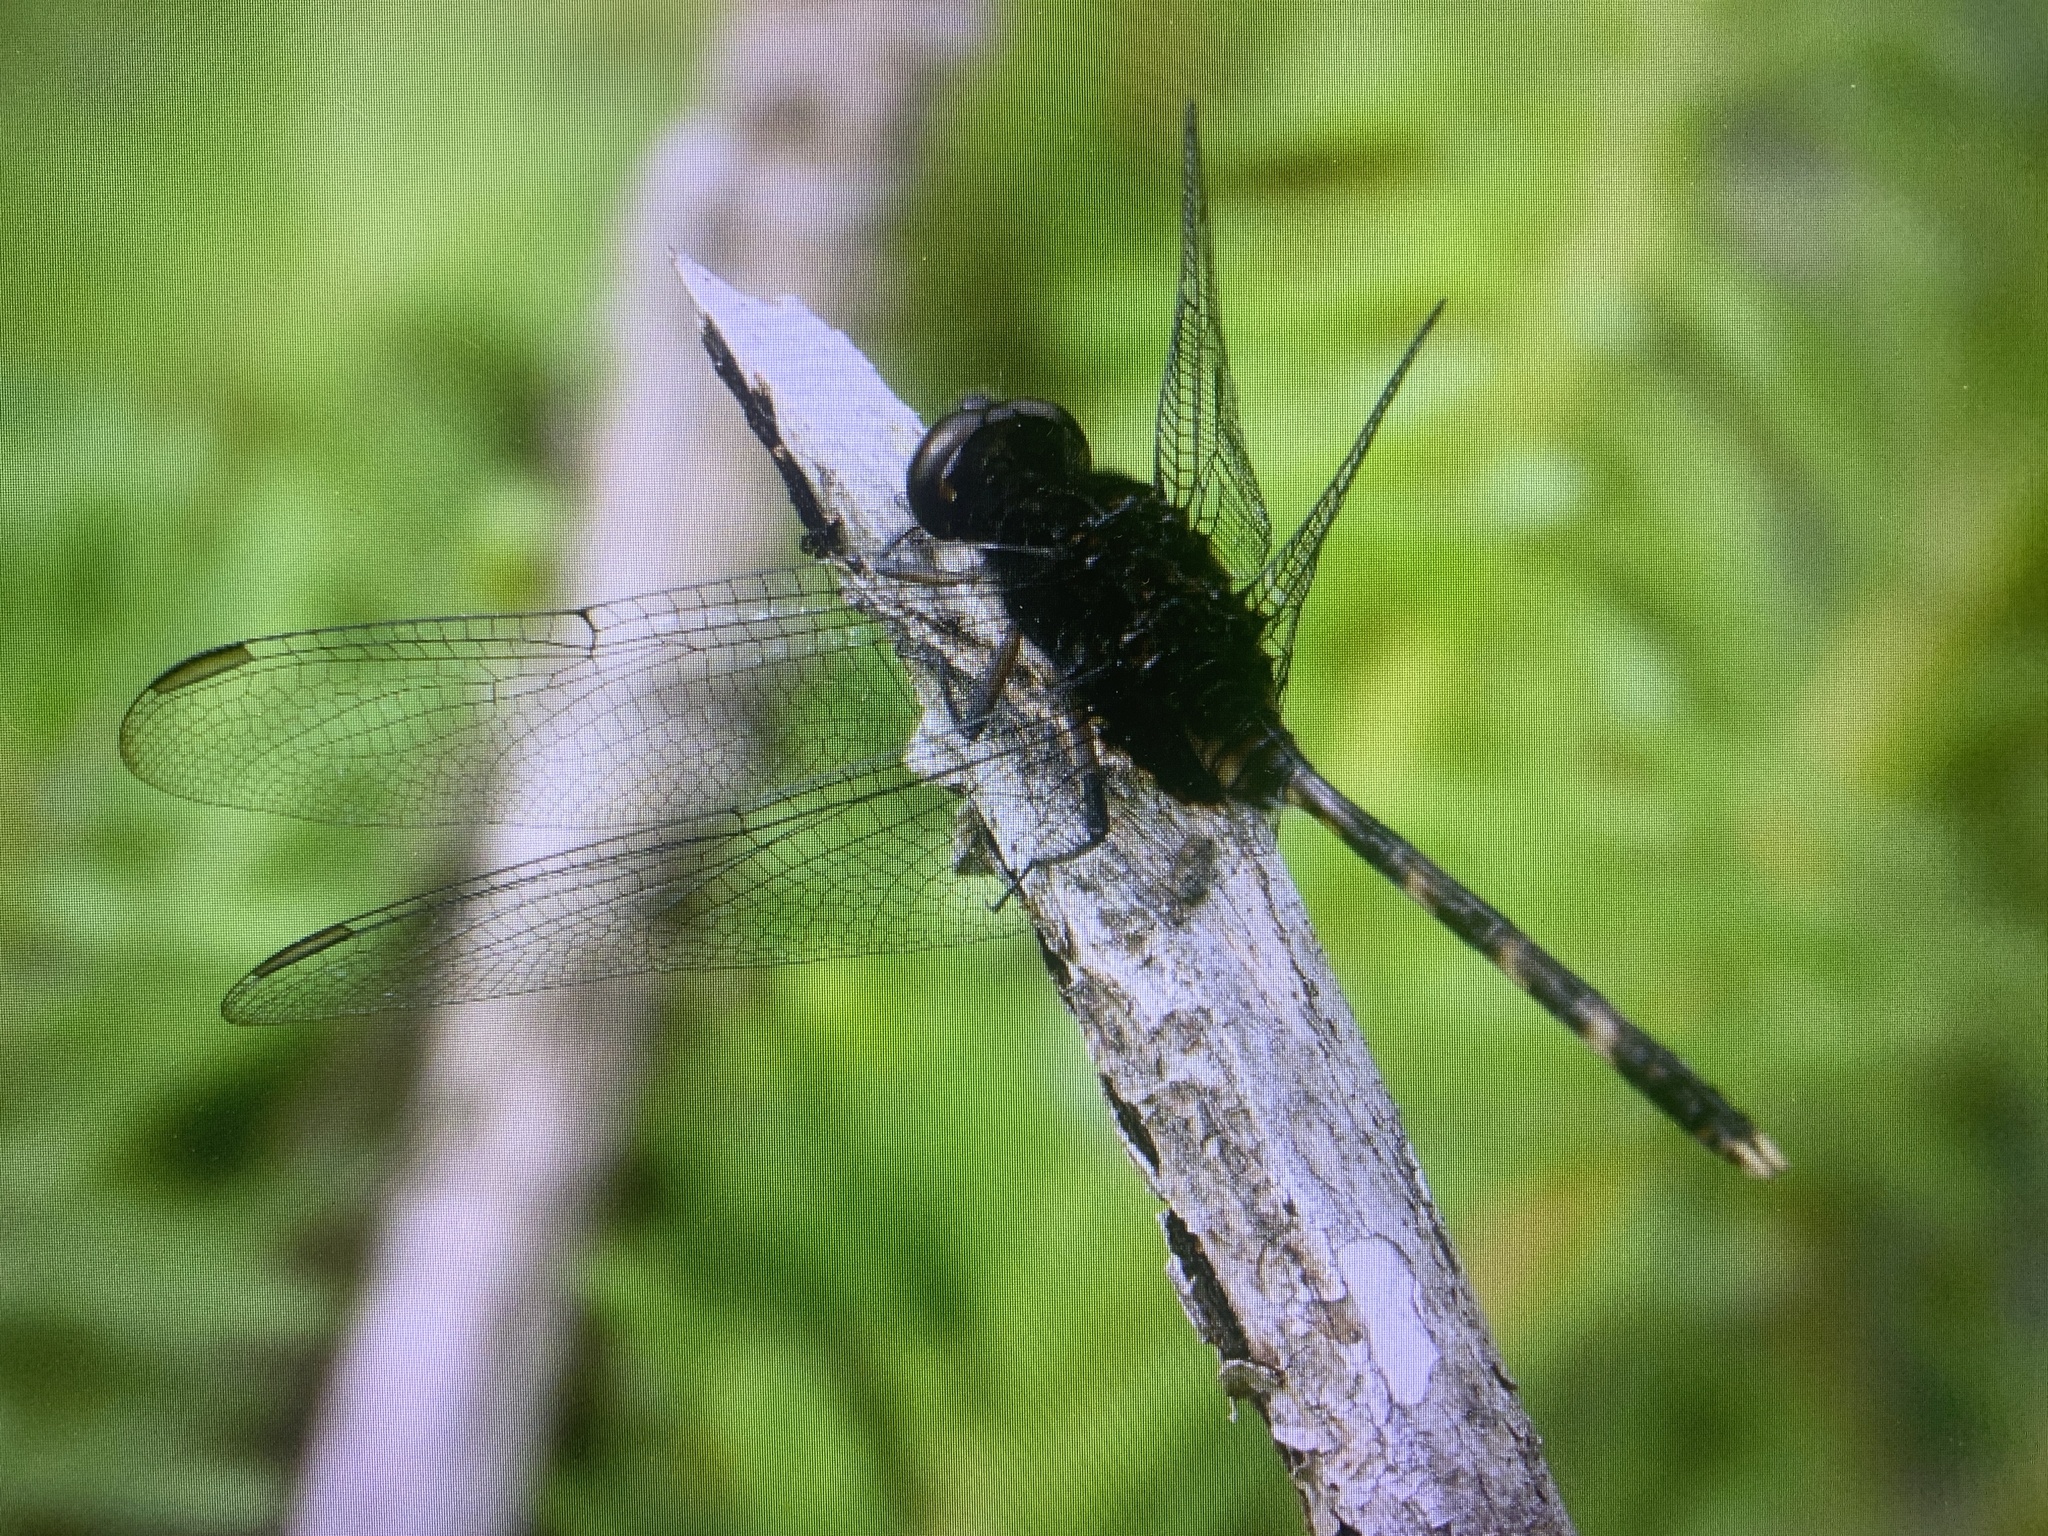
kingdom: Animalia
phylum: Arthropoda
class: Insecta
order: Odonata
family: Libellulidae
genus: Erythemis
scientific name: Erythemis plebeja
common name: Pin-tailed pondhawk
